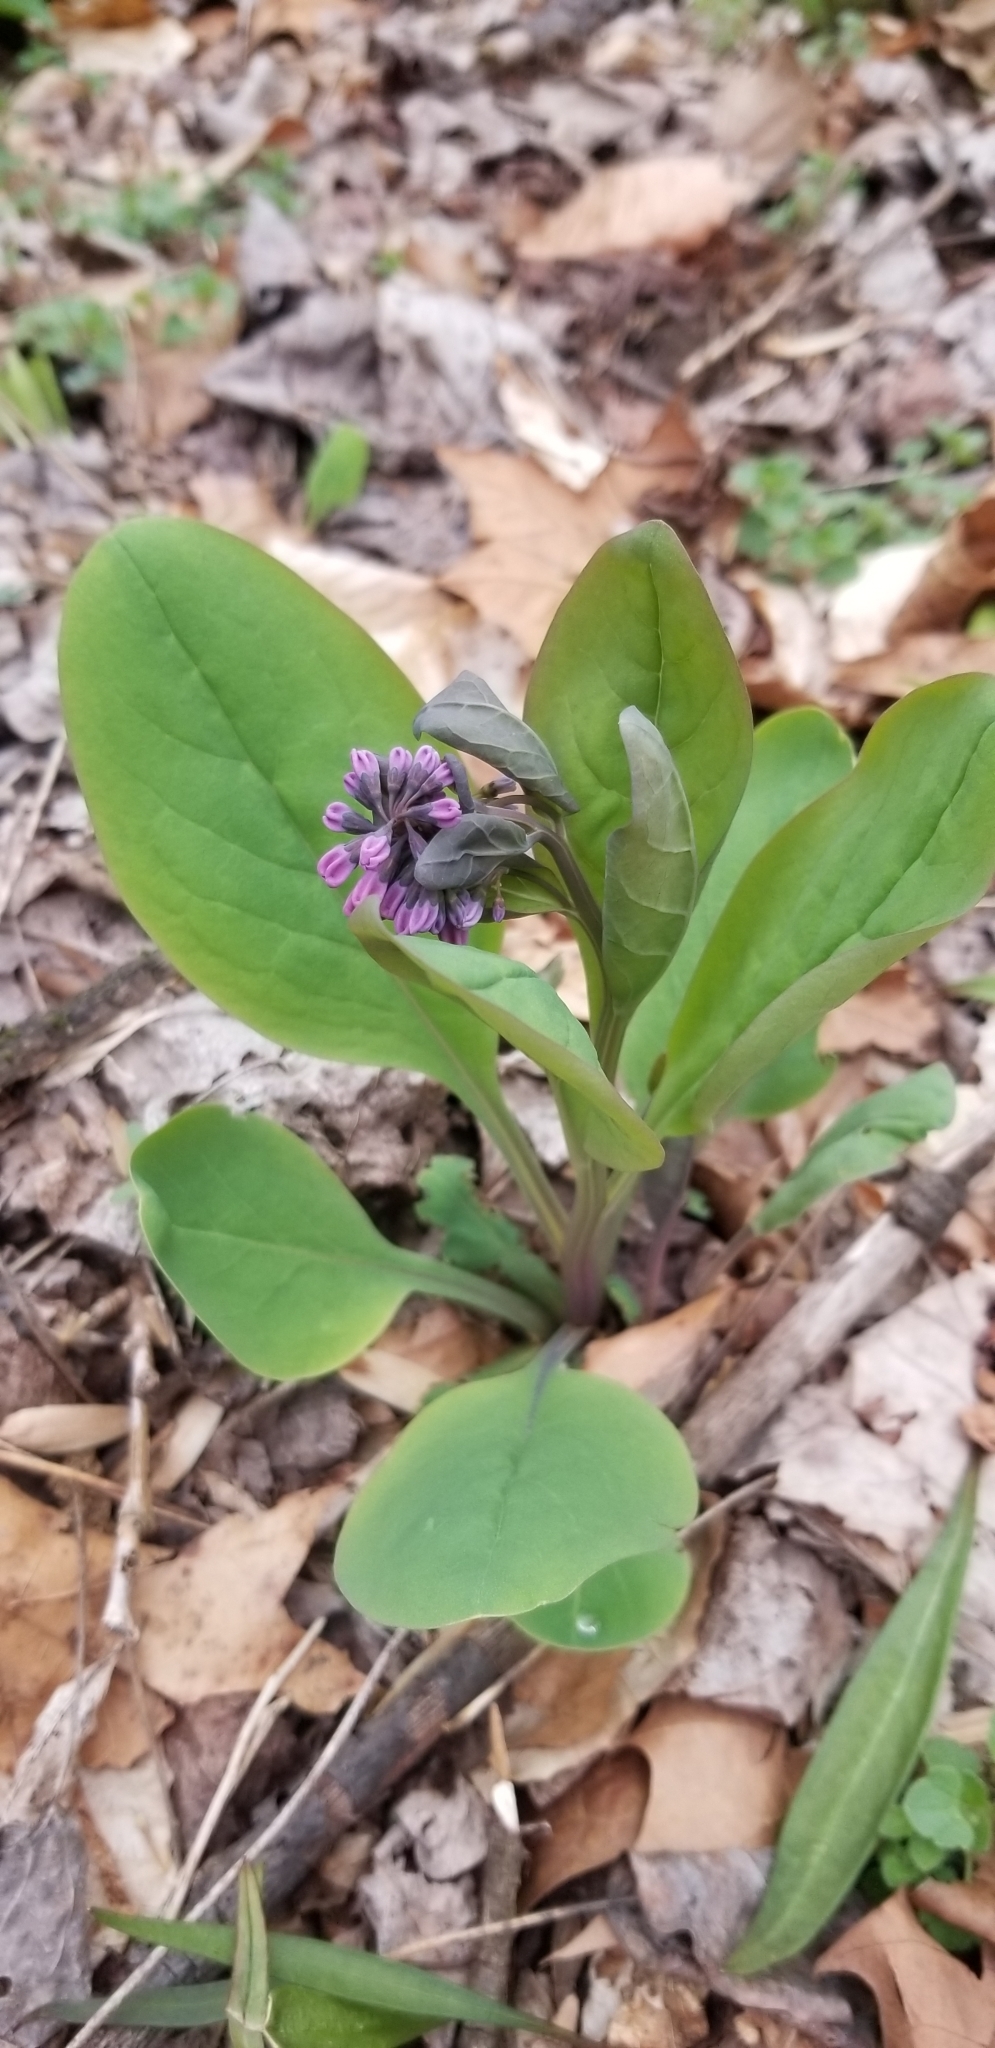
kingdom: Plantae
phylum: Tracheophyta
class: Magnoliopsida
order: Boraginales
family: Boraginaceae
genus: Mertensia
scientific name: Mertensia virginica
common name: Virginia bluebells
